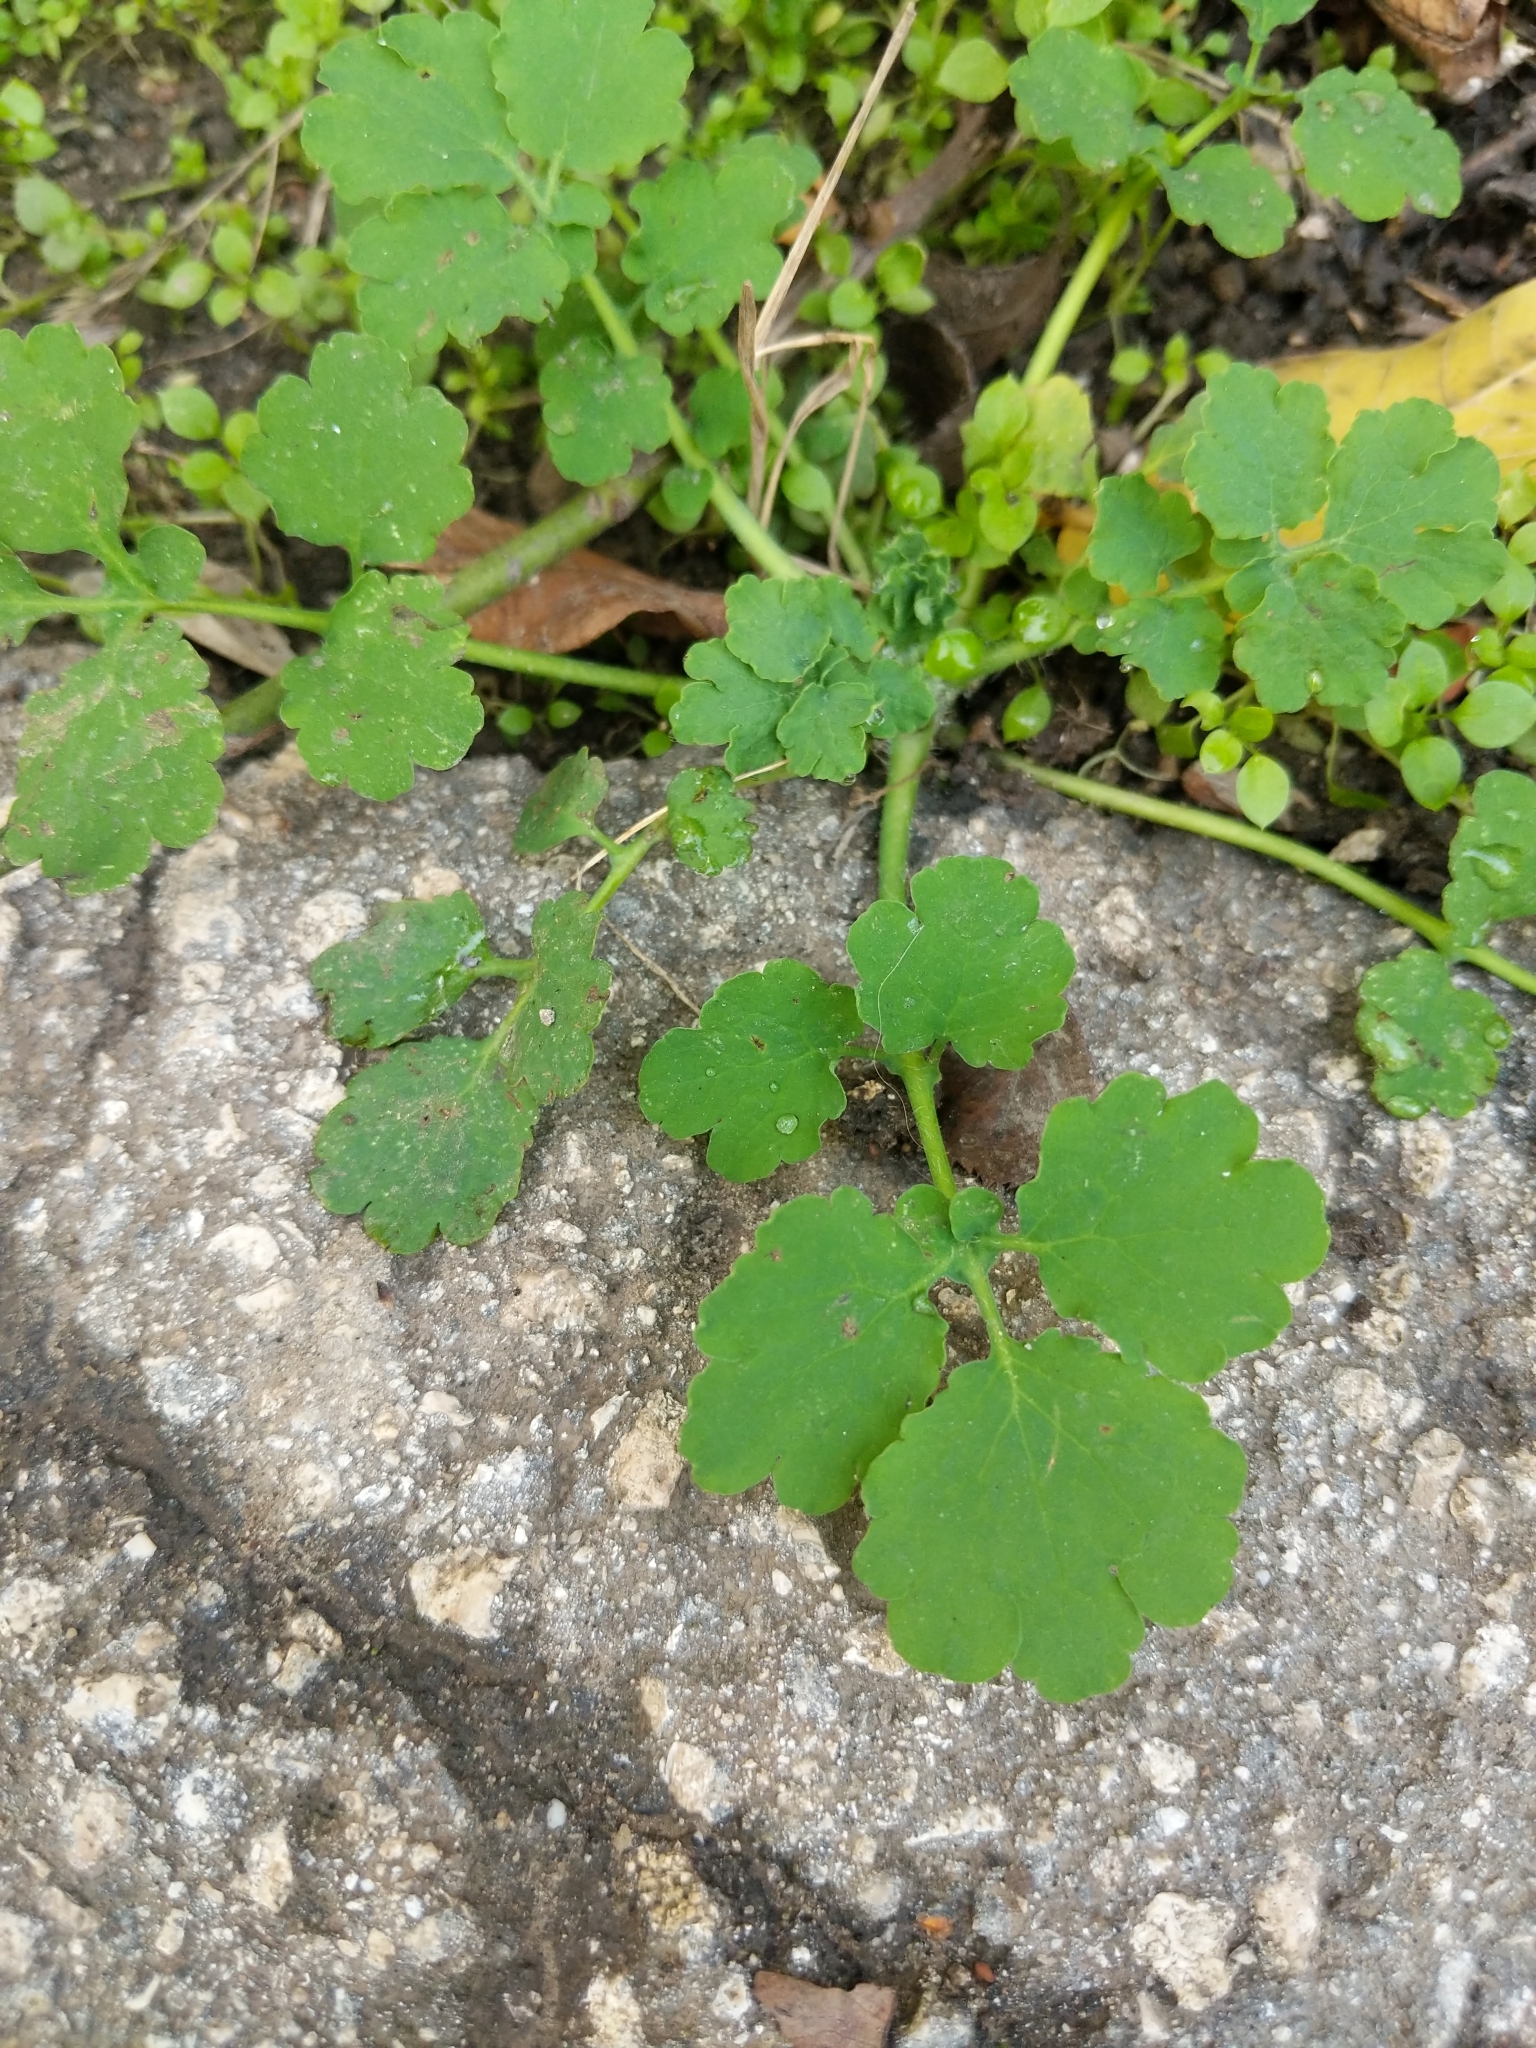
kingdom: Plantae
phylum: Tracheophyta
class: Magnoliopsida
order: Ranunculales
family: Papaveraceae
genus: Chelidonium
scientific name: Chelidonium majus
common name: Greater celandine
